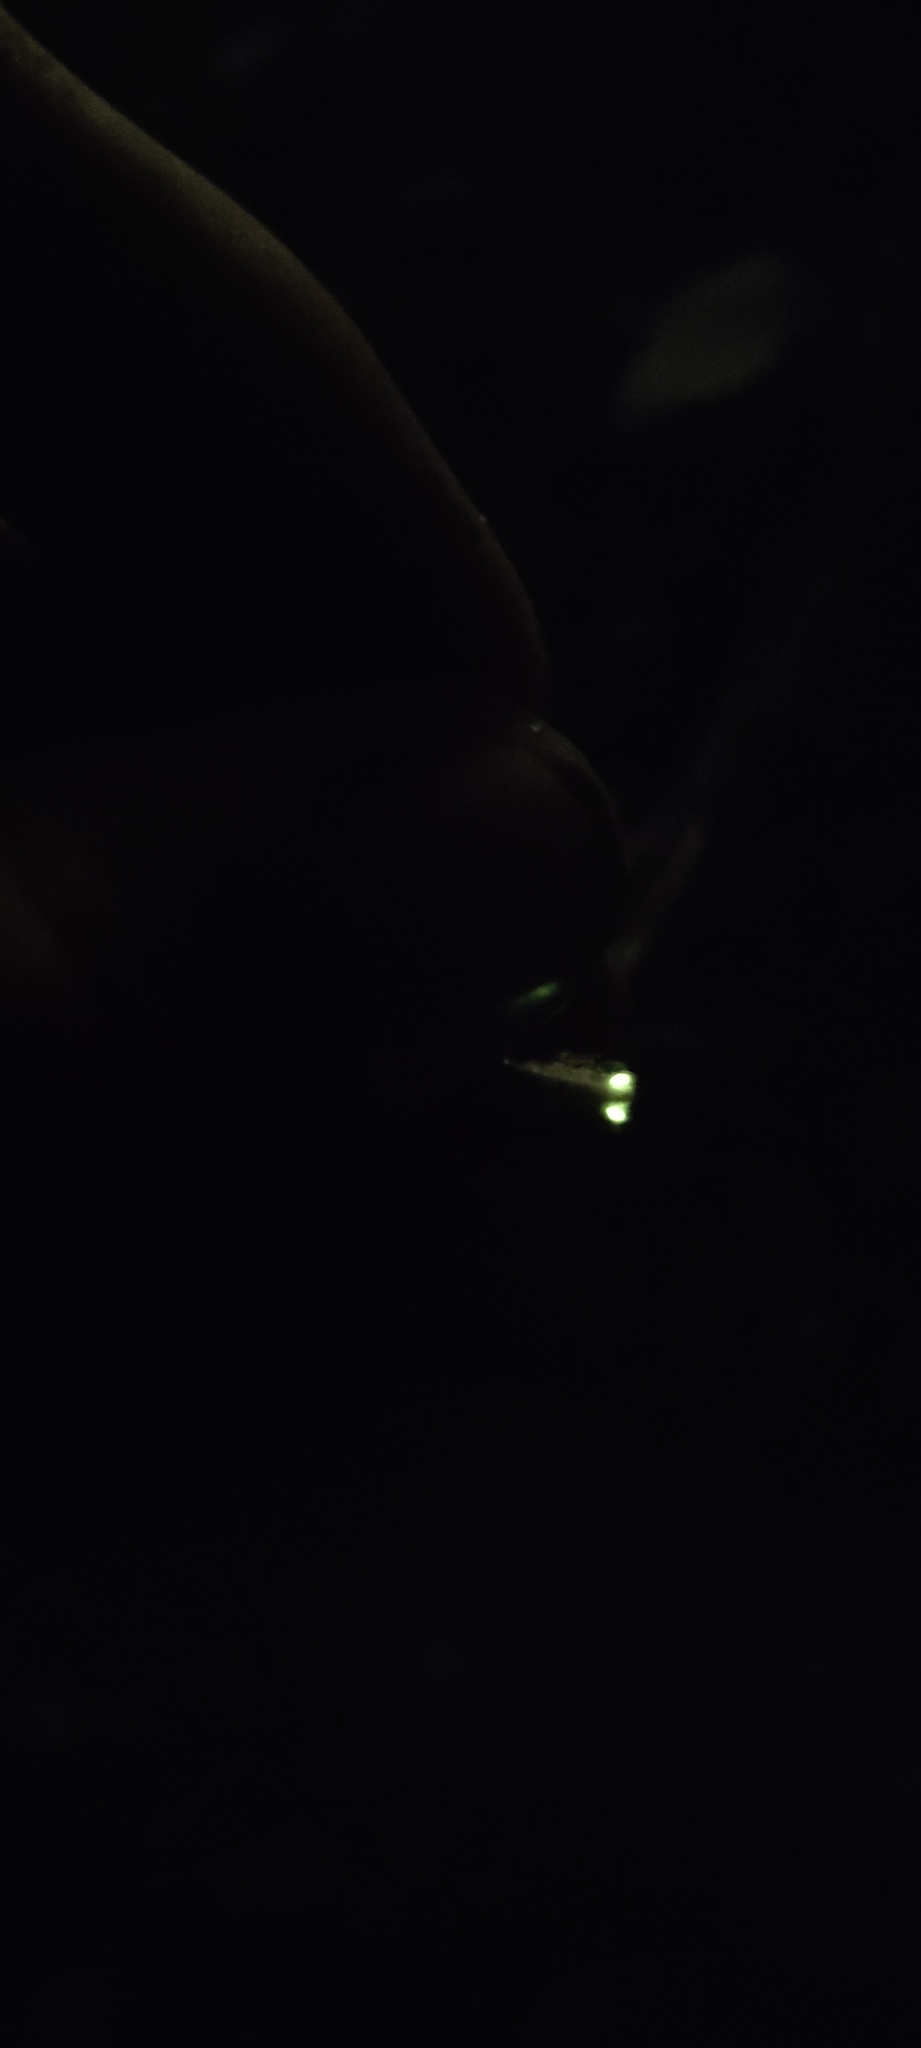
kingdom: Animalia
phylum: Arthropoda
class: Insecta
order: Coleoptera
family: Lampyridae
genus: Nyctophila
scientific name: Nyctophila reichii
